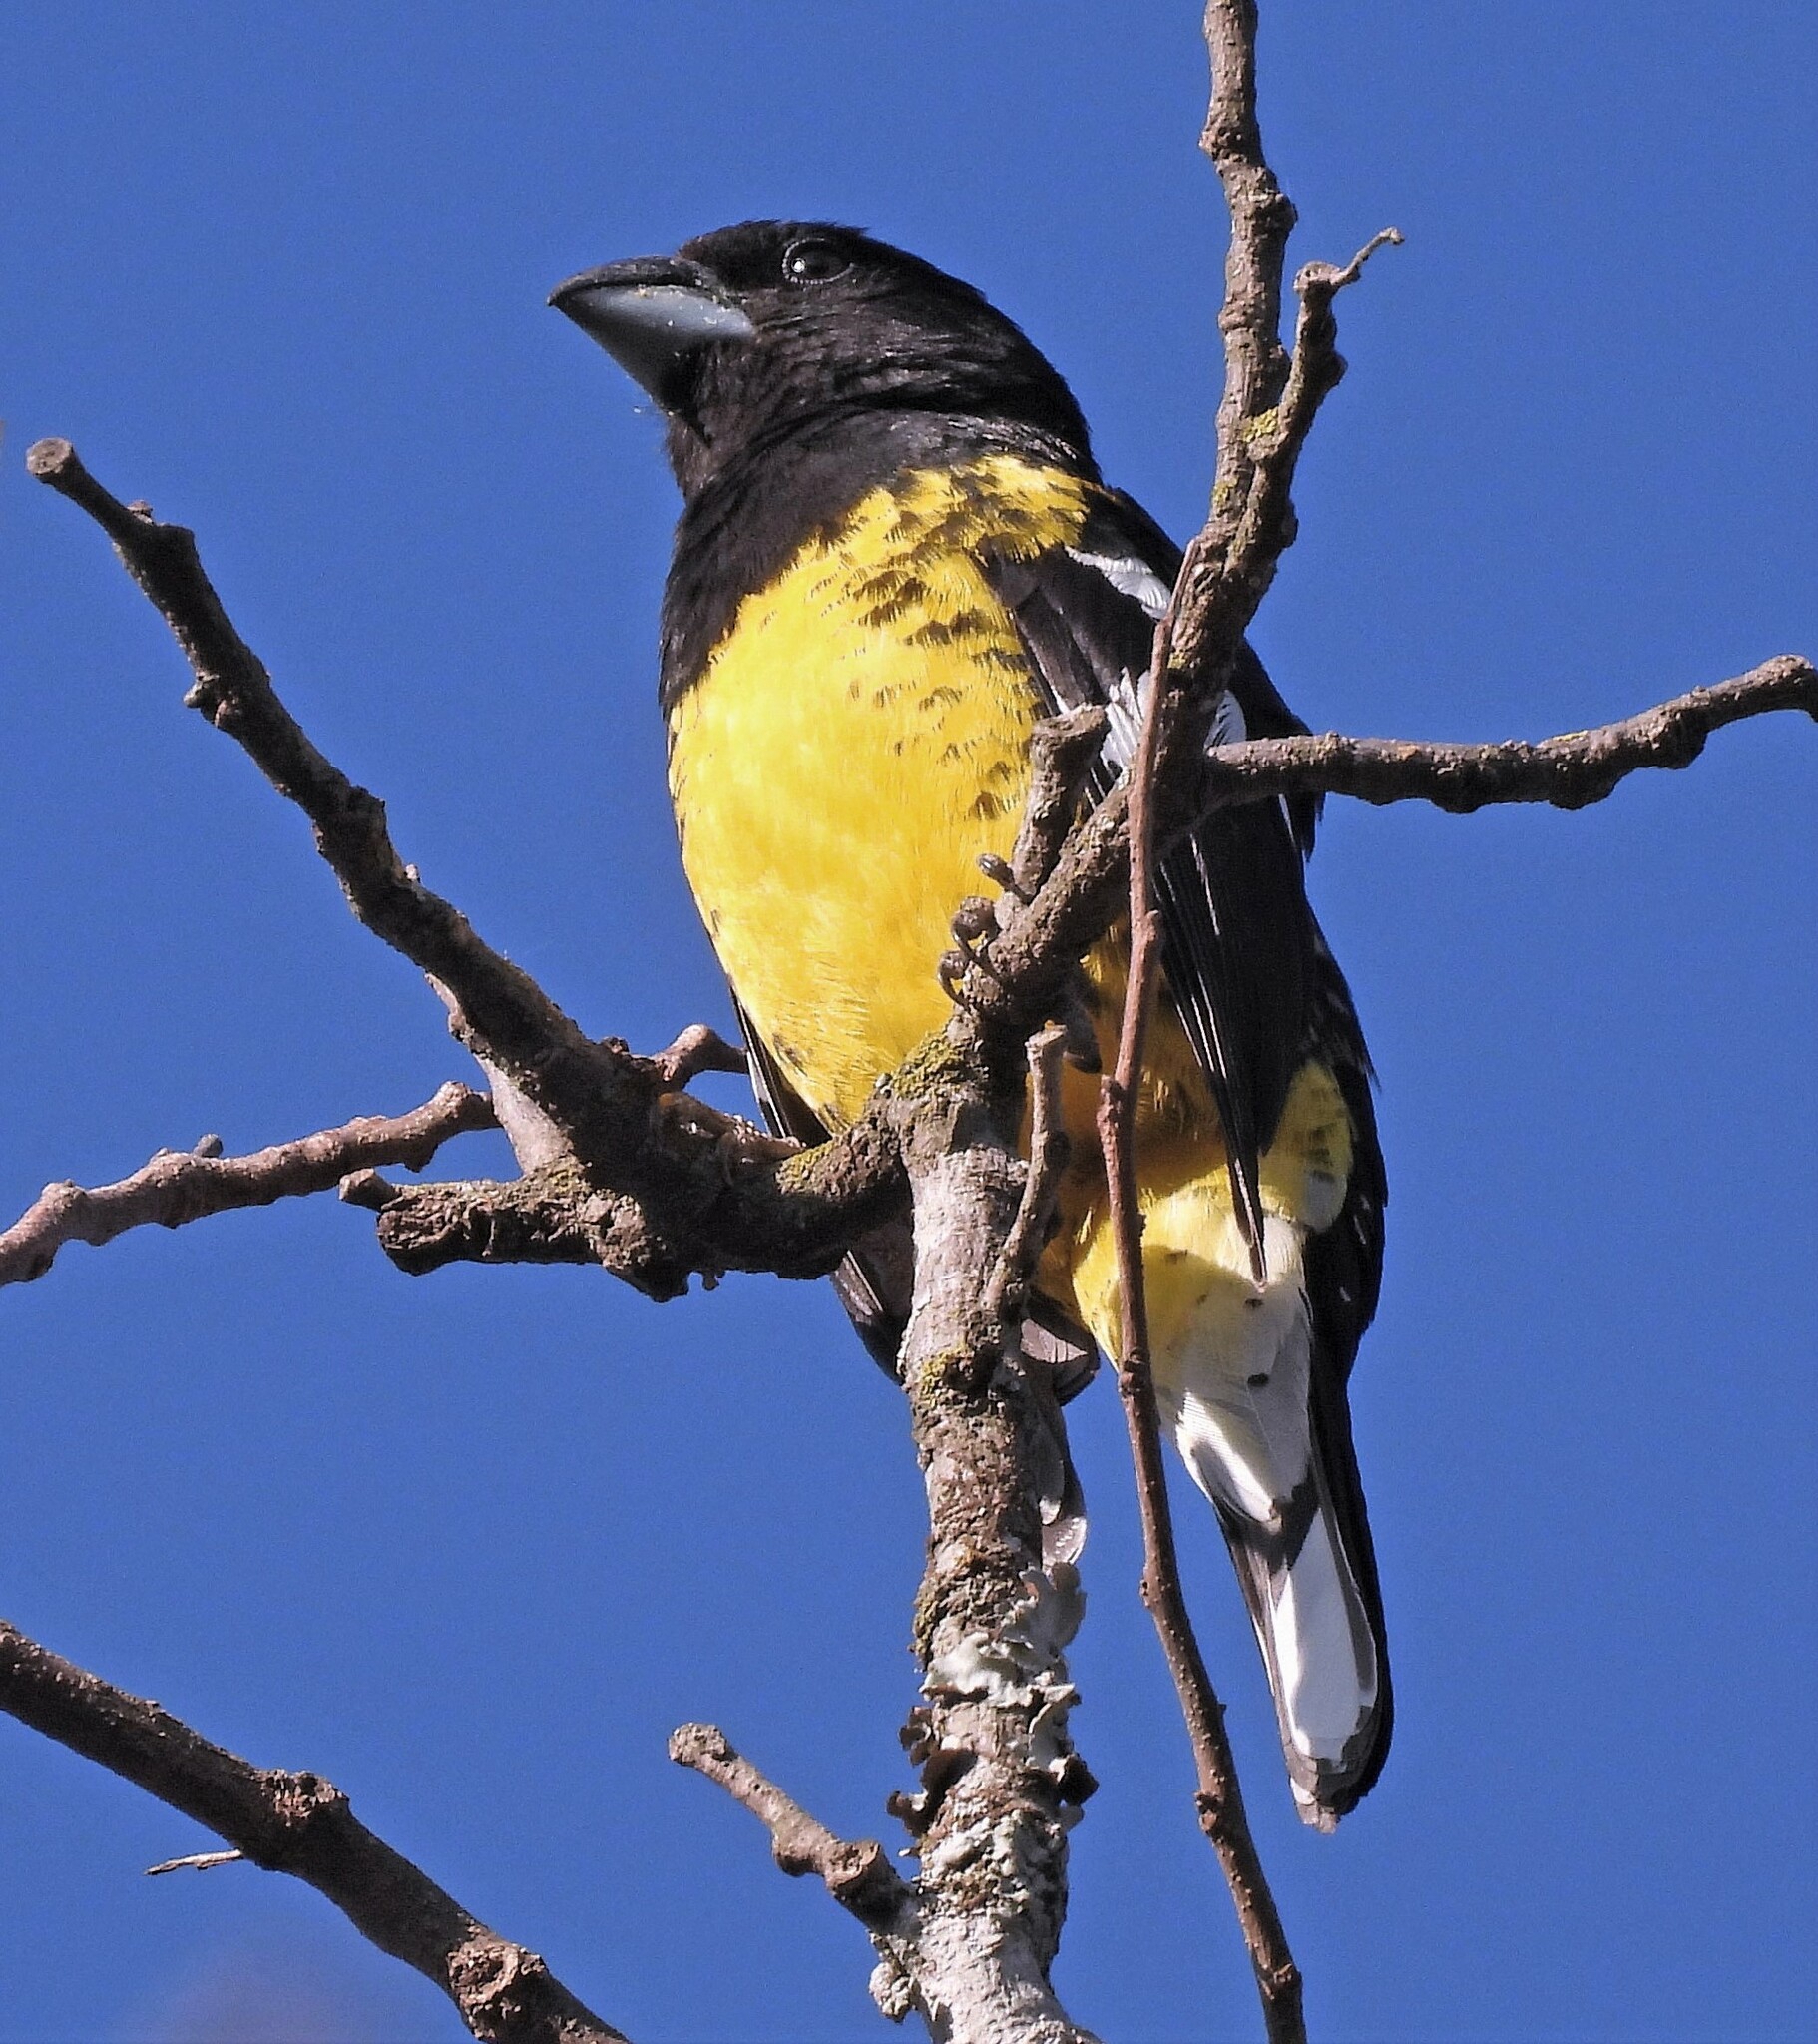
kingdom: Animalia
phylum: Chordata
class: Aves
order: Passeriformes
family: Cardinalidae
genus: Pheucticus
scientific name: Pheucticus aureoventris
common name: Black-backed grosbeak
